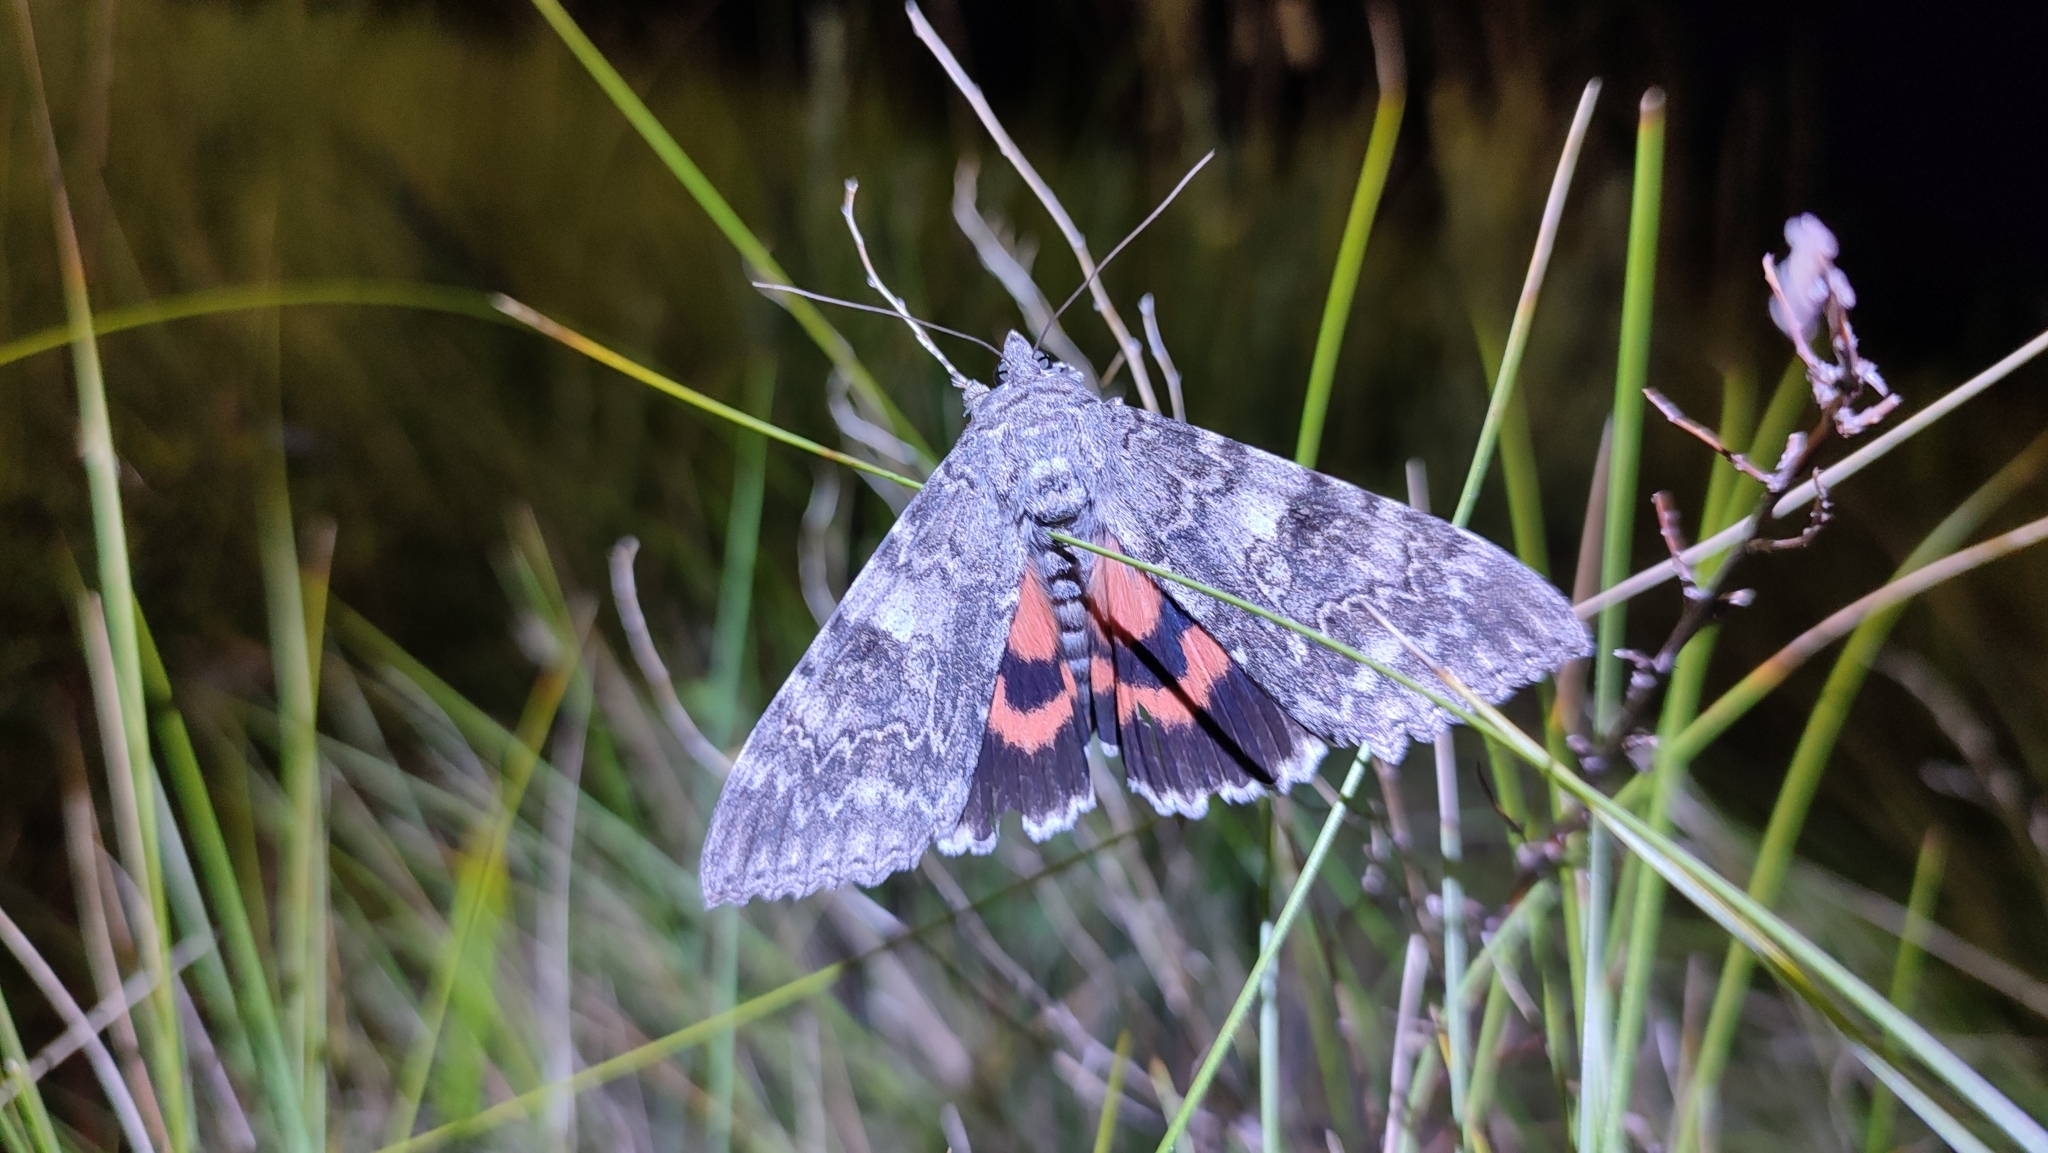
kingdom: Animalia
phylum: Arthropoda
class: Insecta
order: Lepidoptera
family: Erebidae
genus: Catocala
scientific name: Catocala nupta
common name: Red underwing
